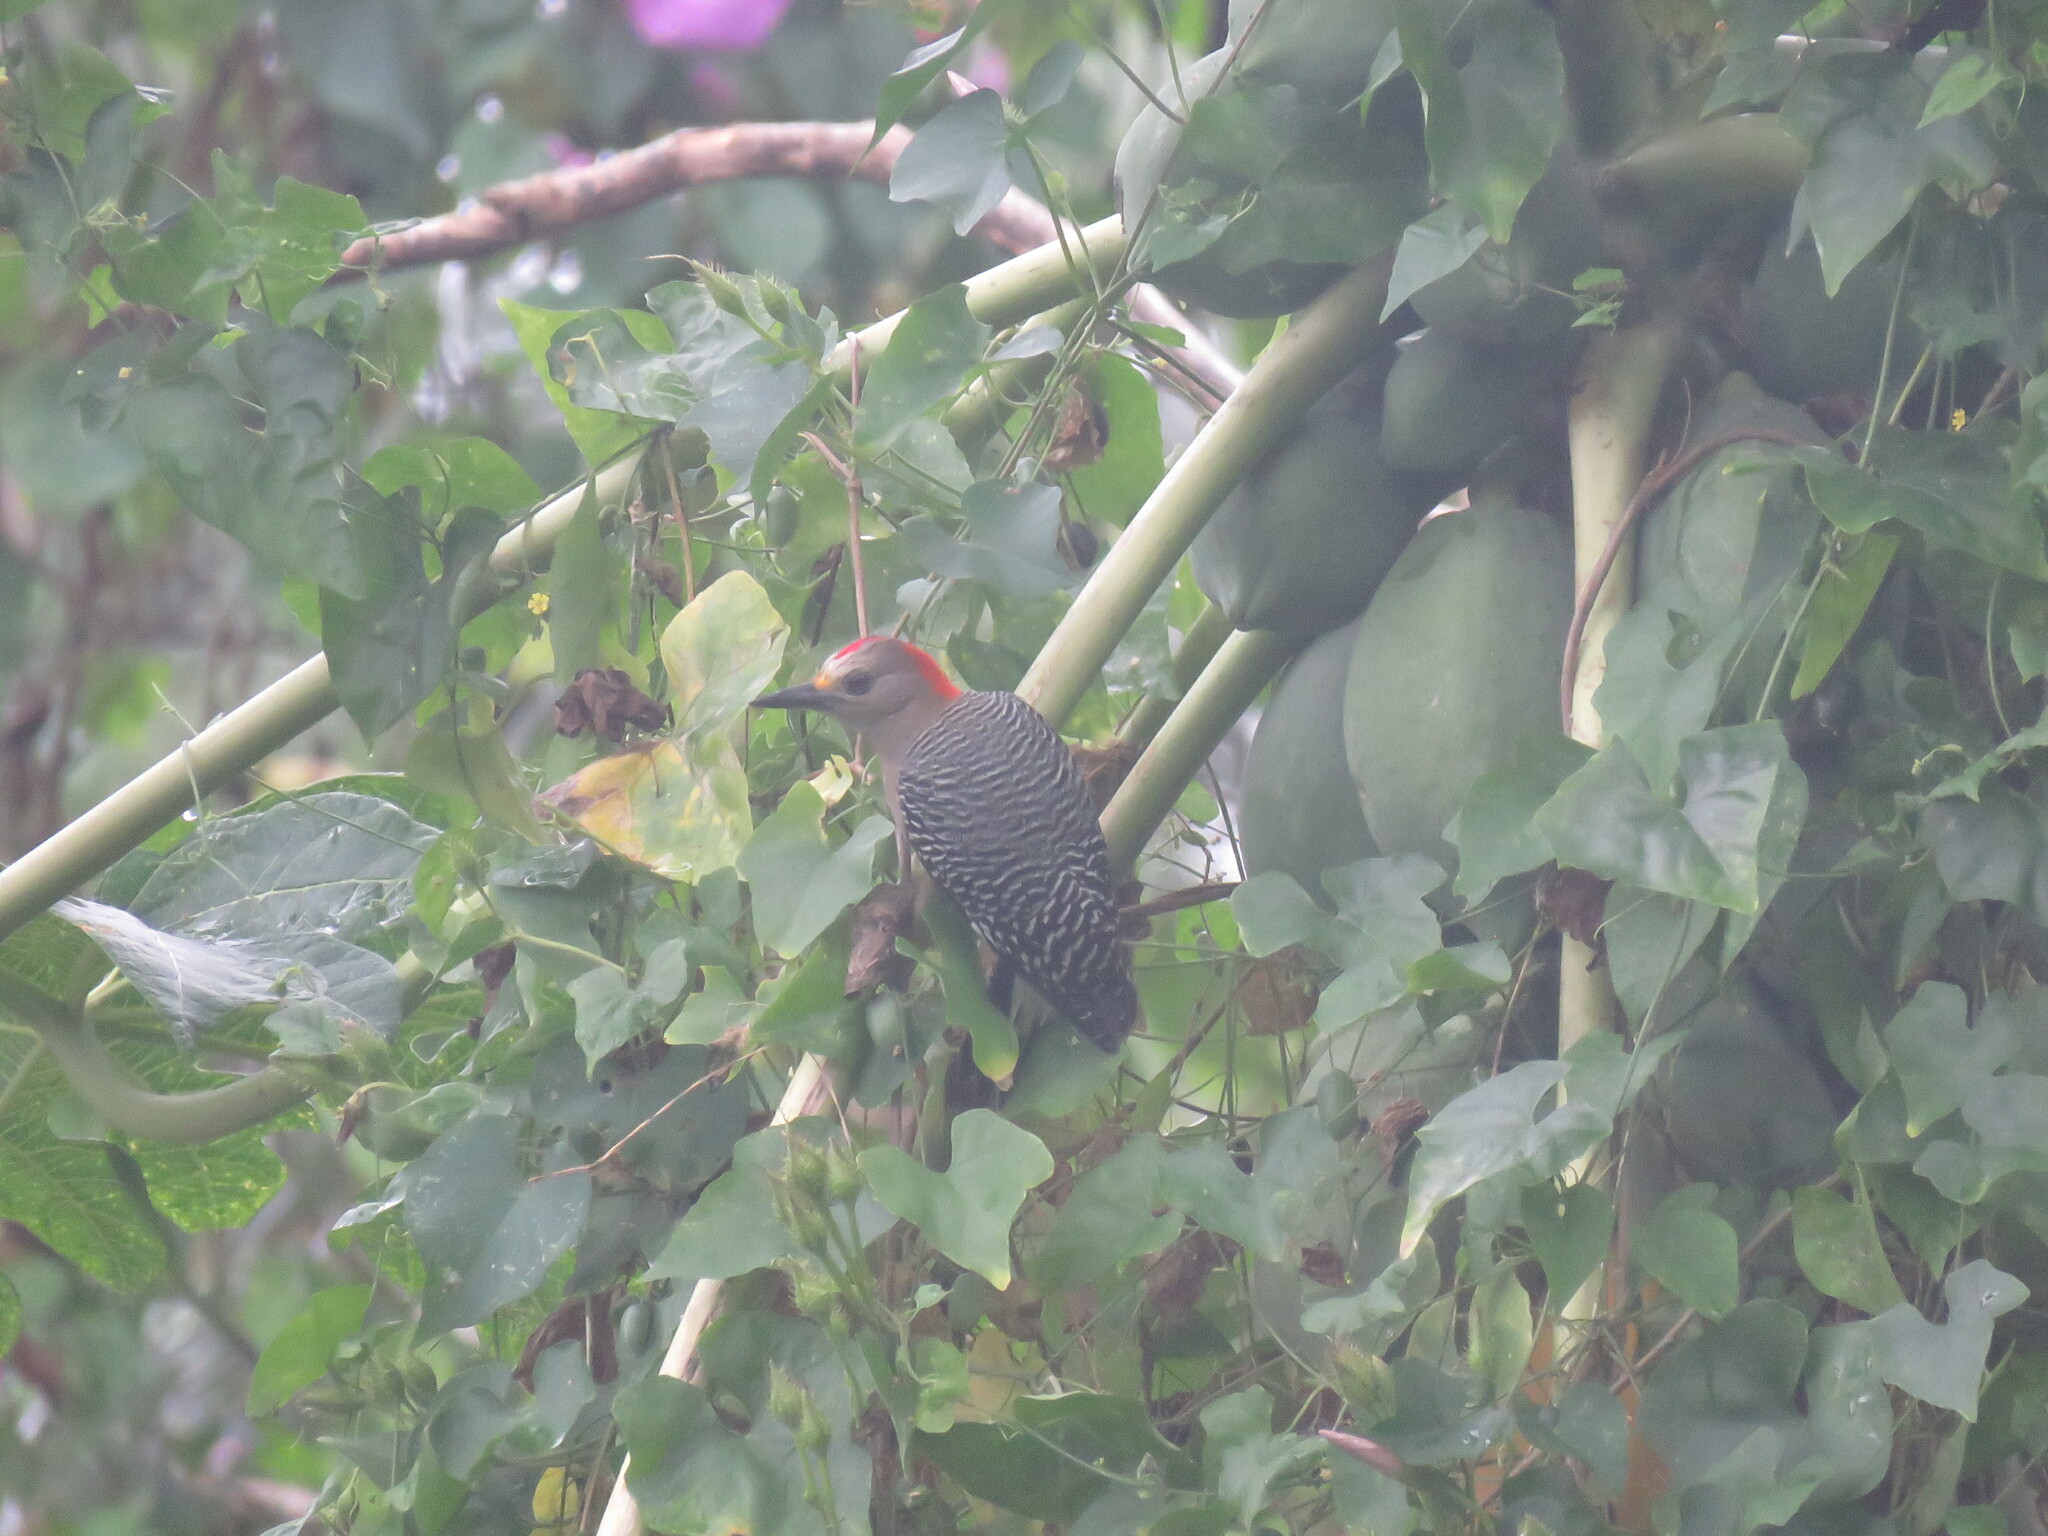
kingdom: Animalia
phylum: Chordata
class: Aves
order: Piciformes
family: Picidae
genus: Melanerpes
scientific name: Melanerpes pygmaeus
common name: Yucatan woodpecker
